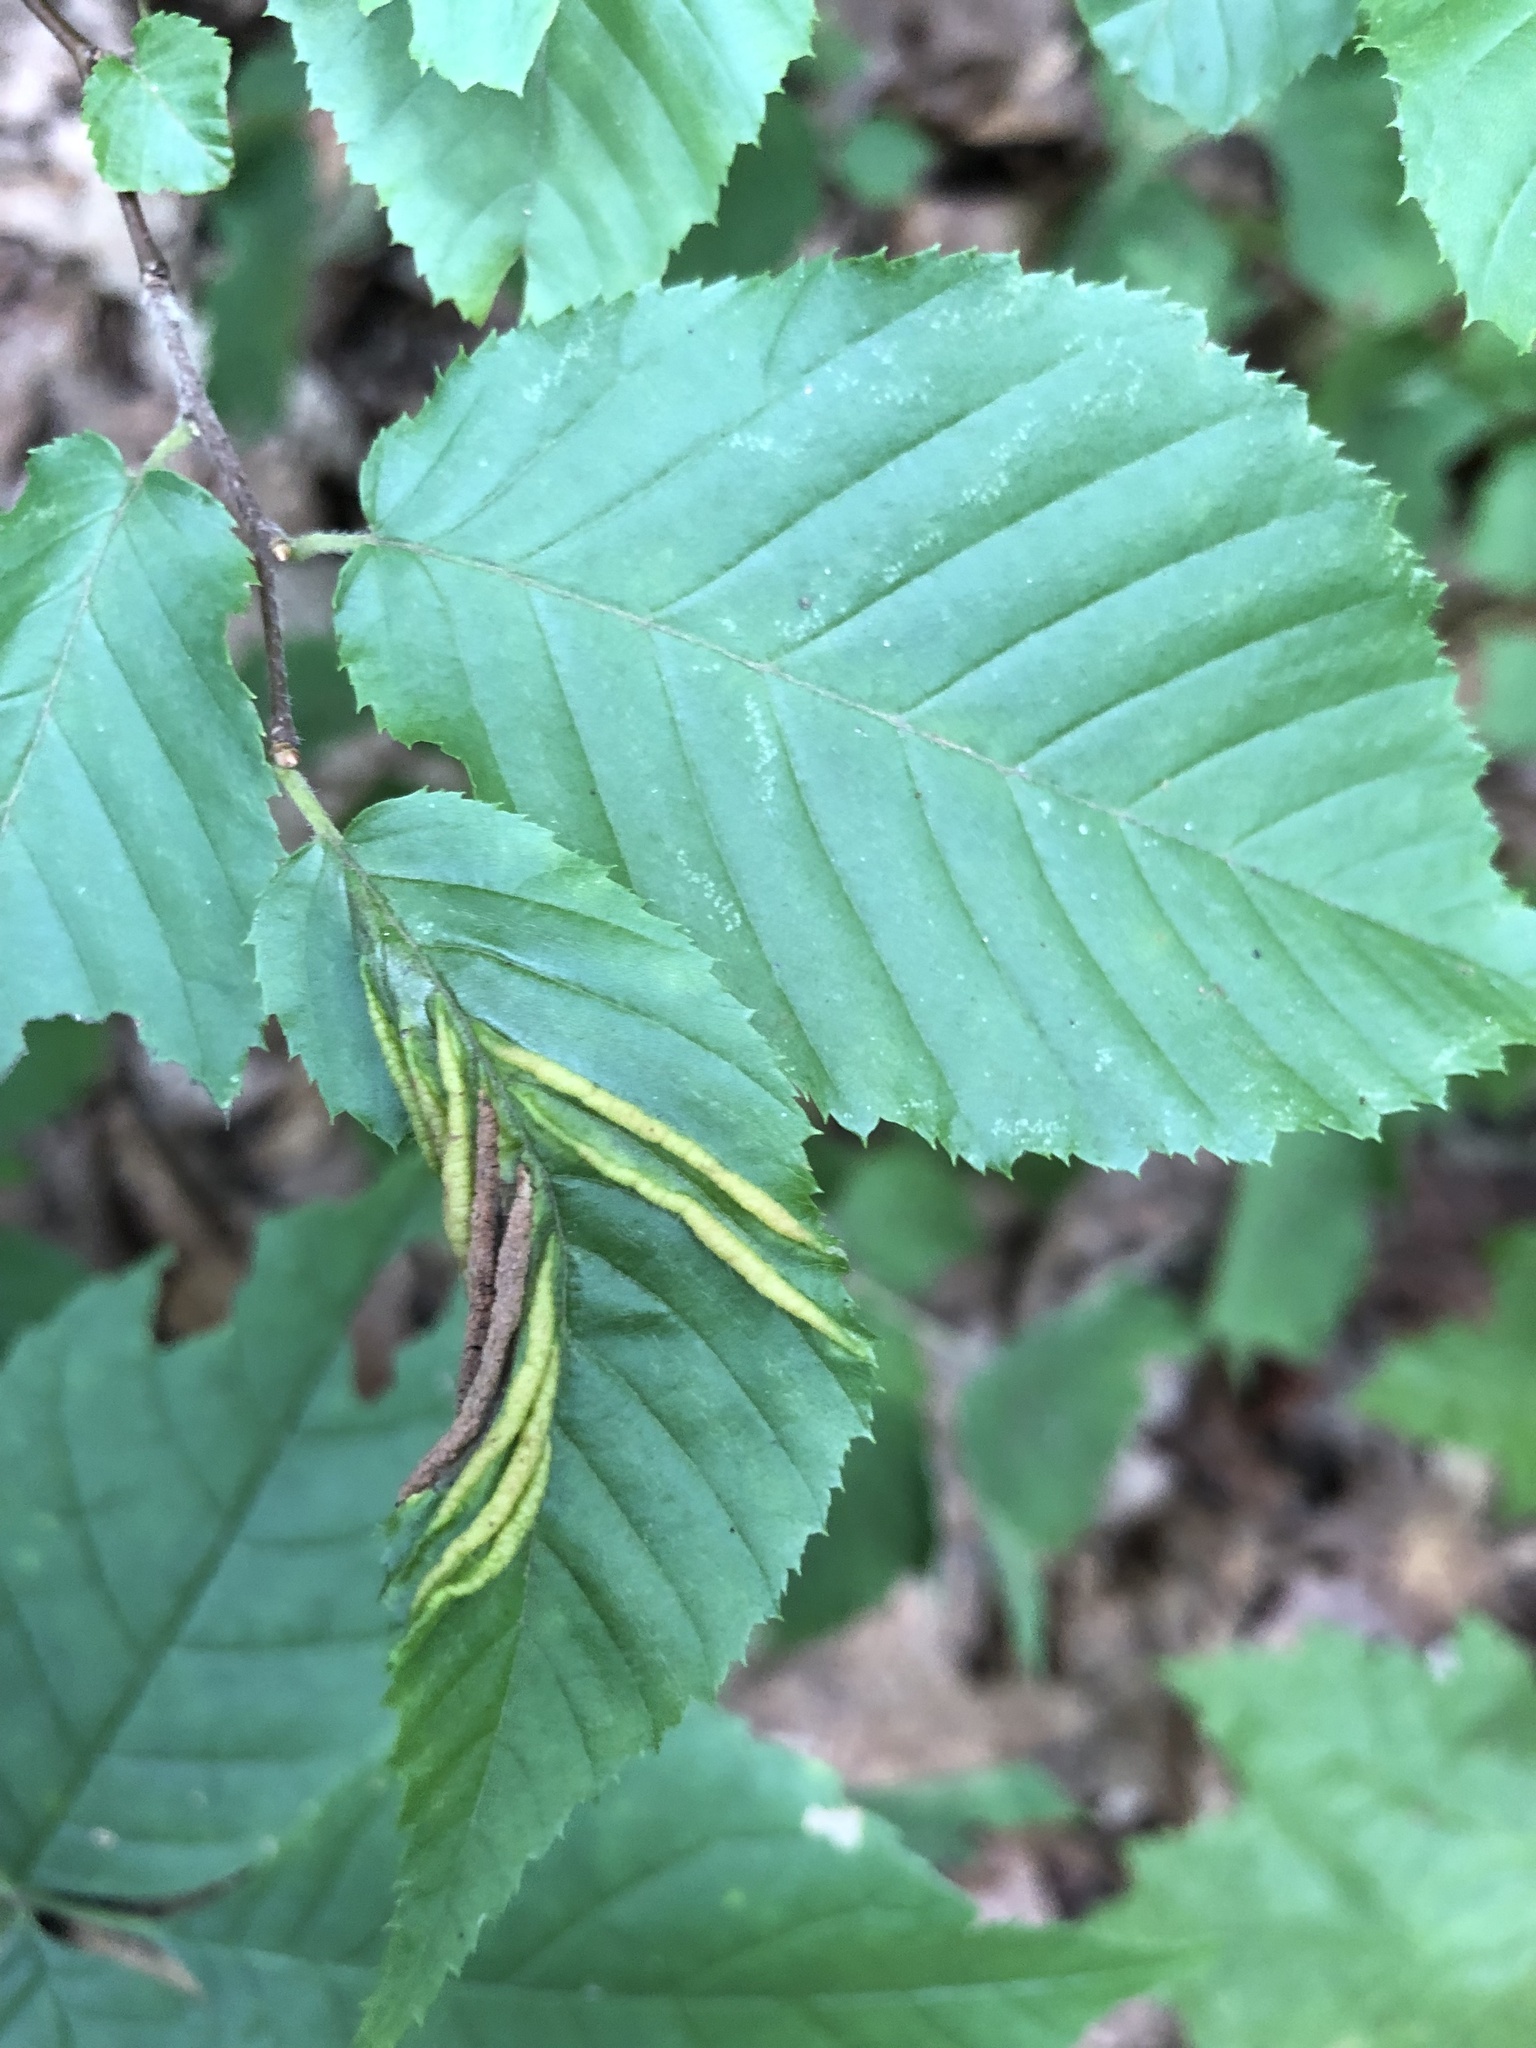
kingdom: Animalia
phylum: Arthropoda
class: Insecta
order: Diptera
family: Cecidomyiidae
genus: Dasineura
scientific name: Dasineura pudibunda
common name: Hornbeam leaf gall midge
